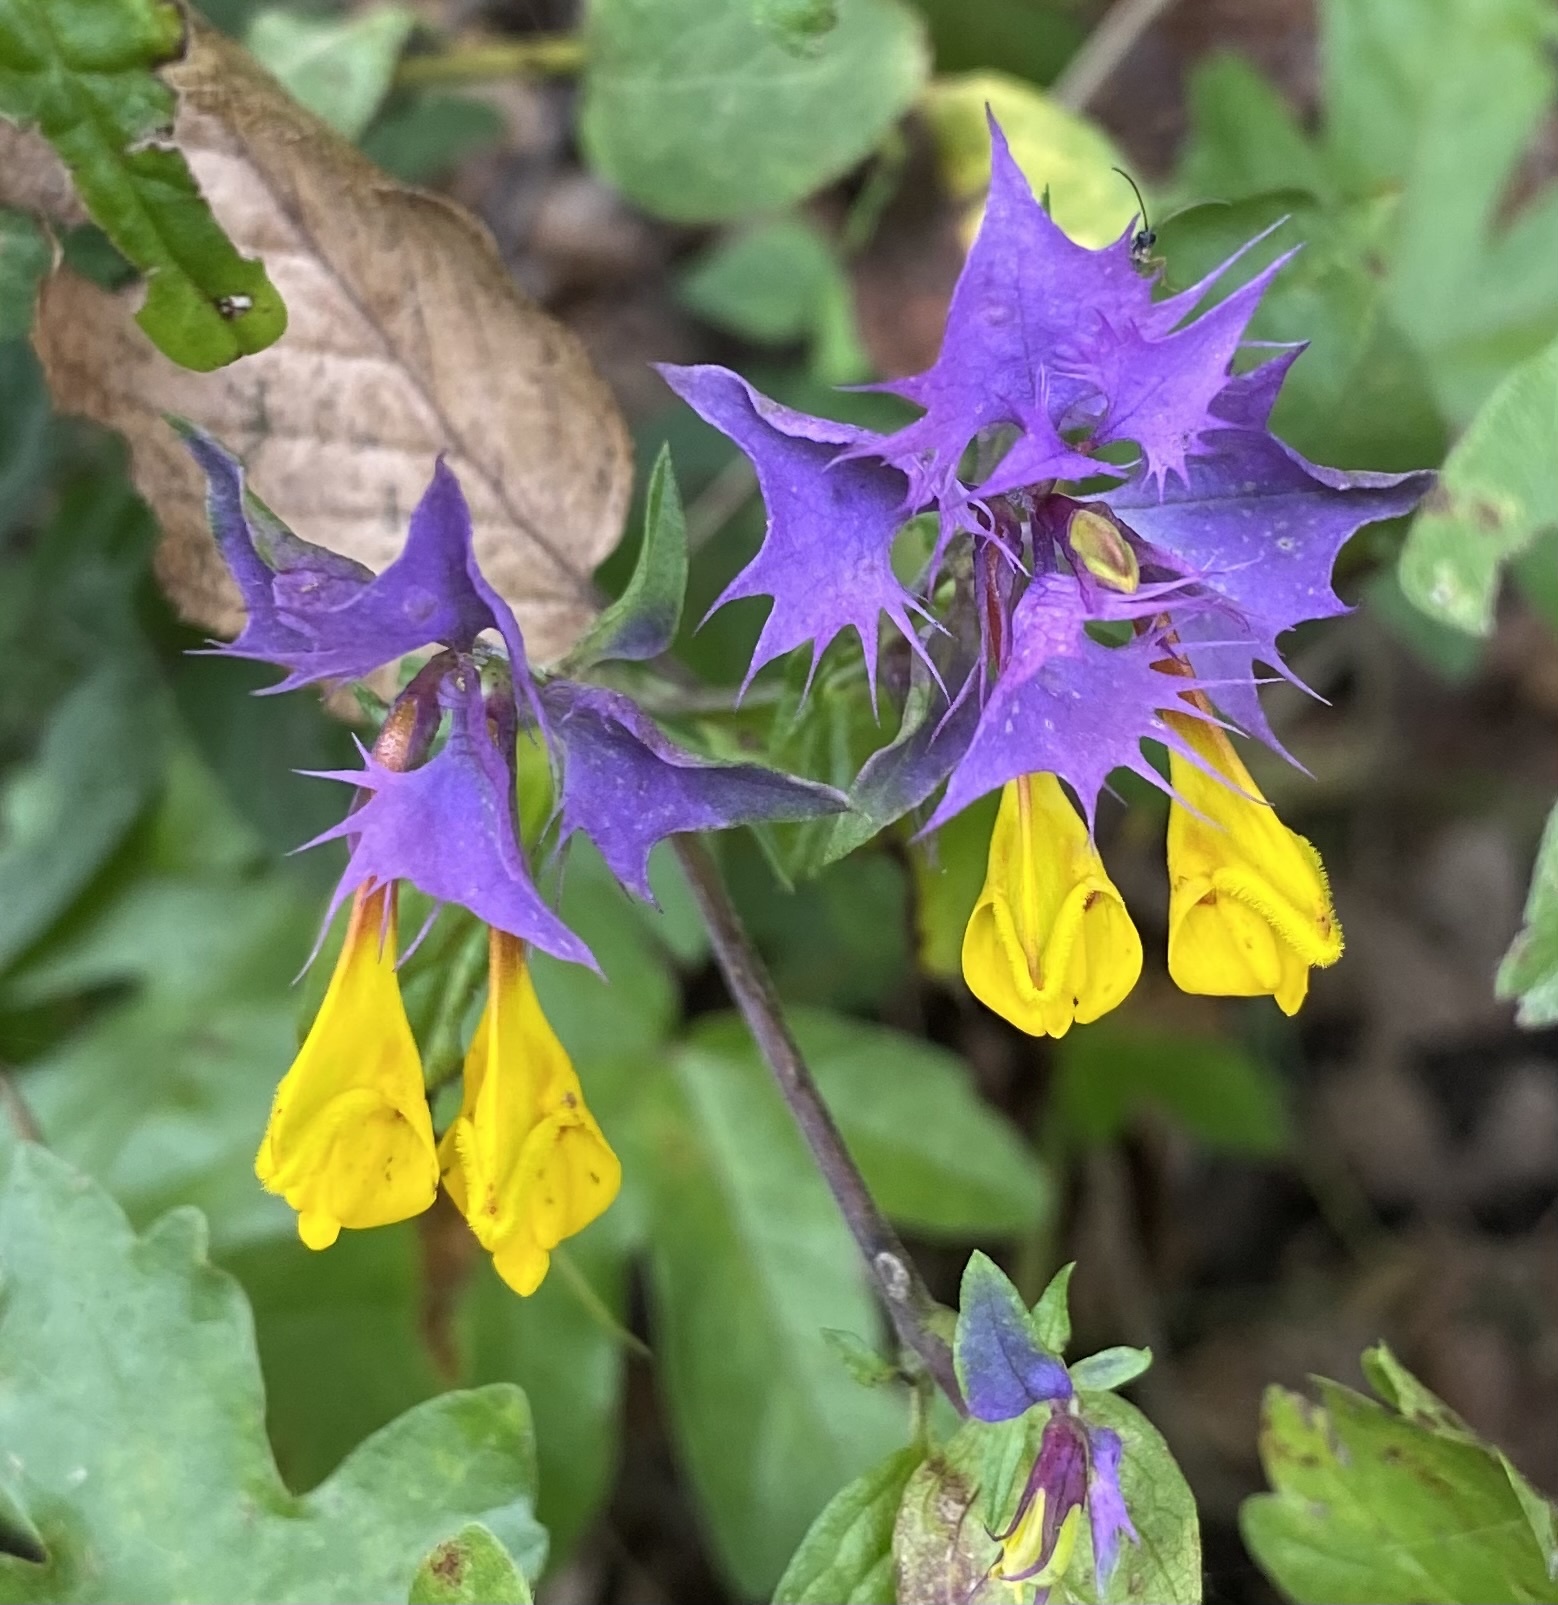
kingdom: Plantae
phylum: Tracheophyta
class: Magnoliopsida
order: Lamiales
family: Orobanchaceae
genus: Melampyrum
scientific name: Melampyrum nemorosum
